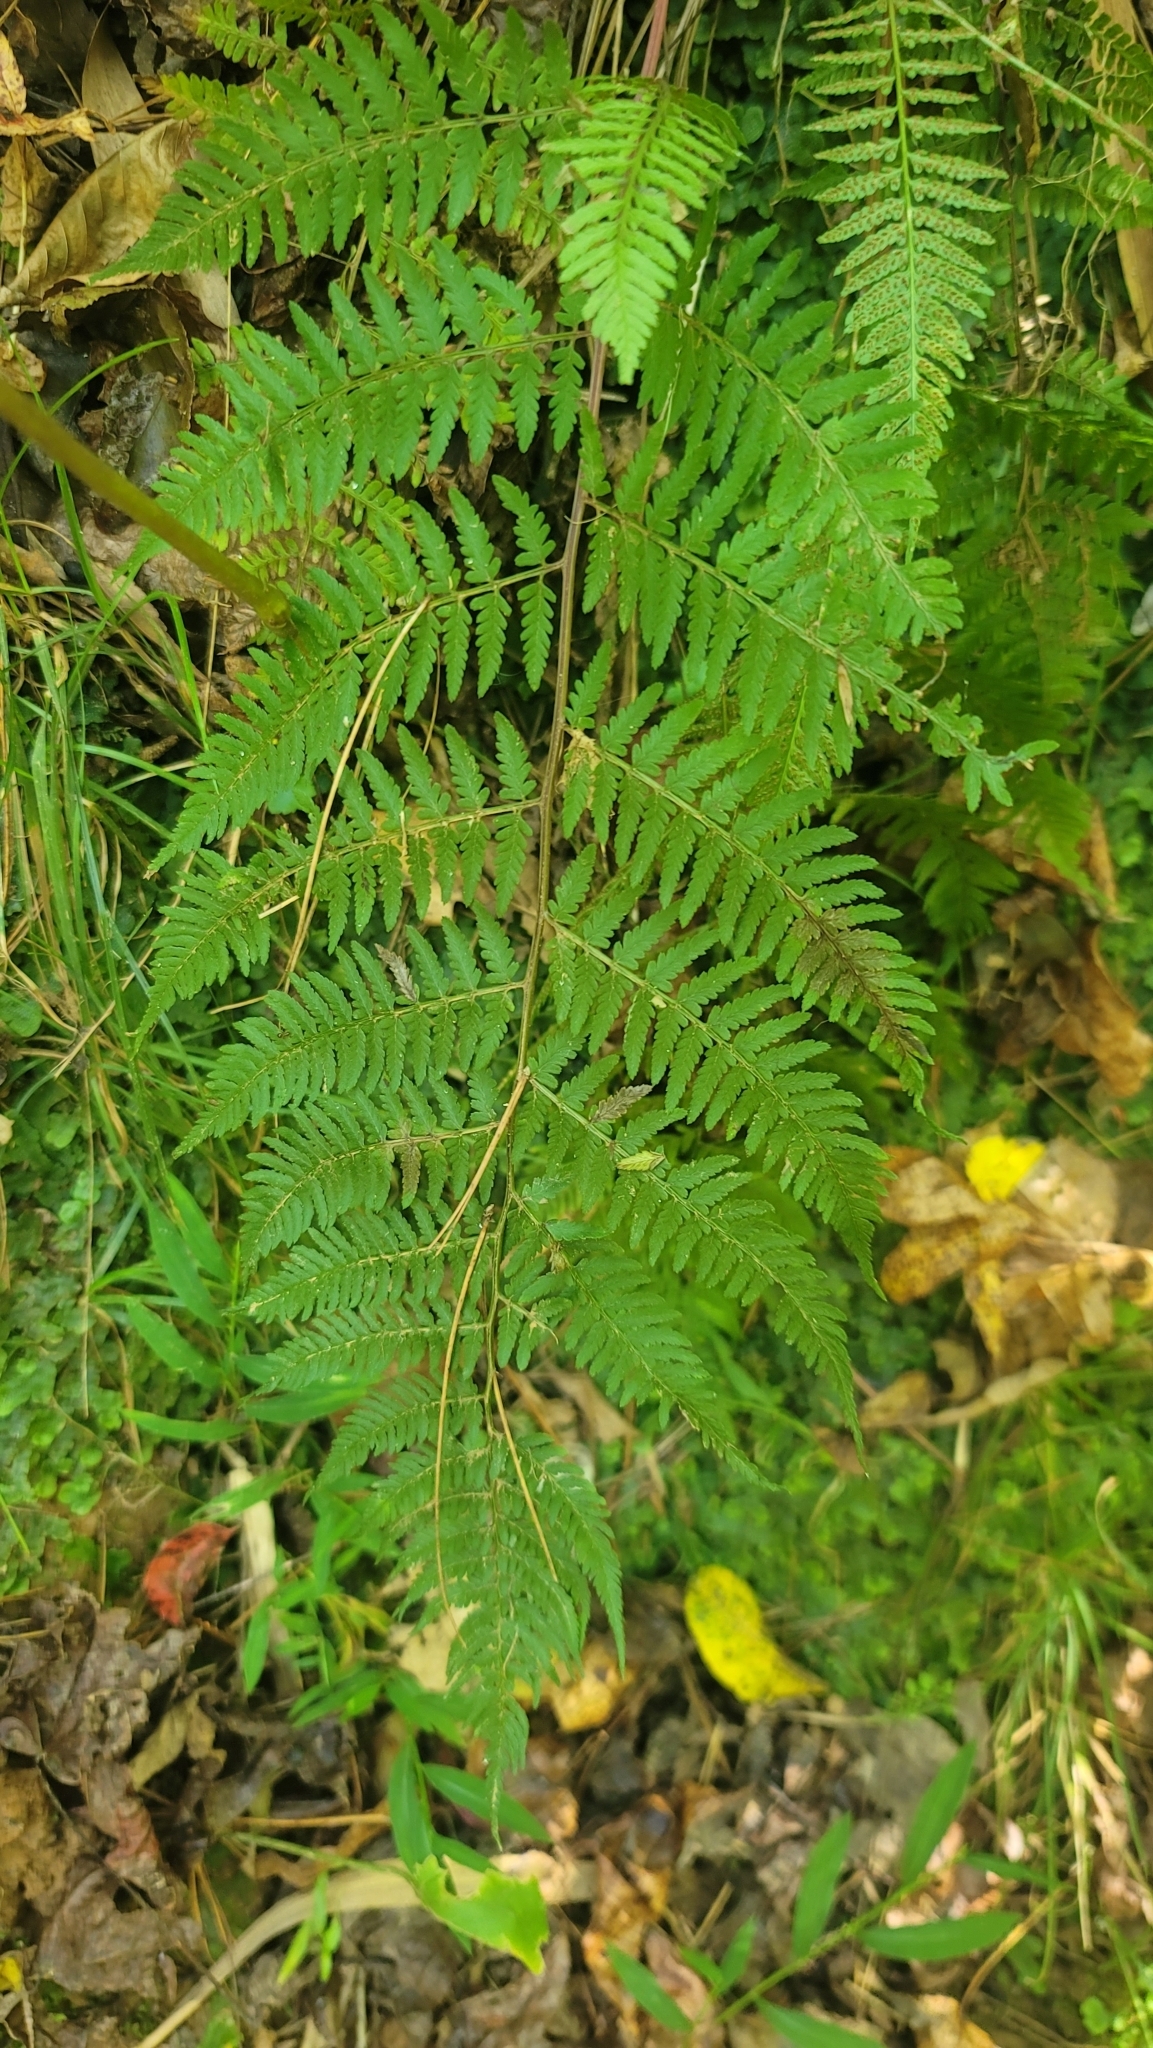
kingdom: Plantae
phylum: Tracheophyta
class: Polypodiopsida
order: Polypodiales
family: Athyriaceae
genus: Athyrium
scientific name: Athyrium asplenioides
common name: Southern lady fern
